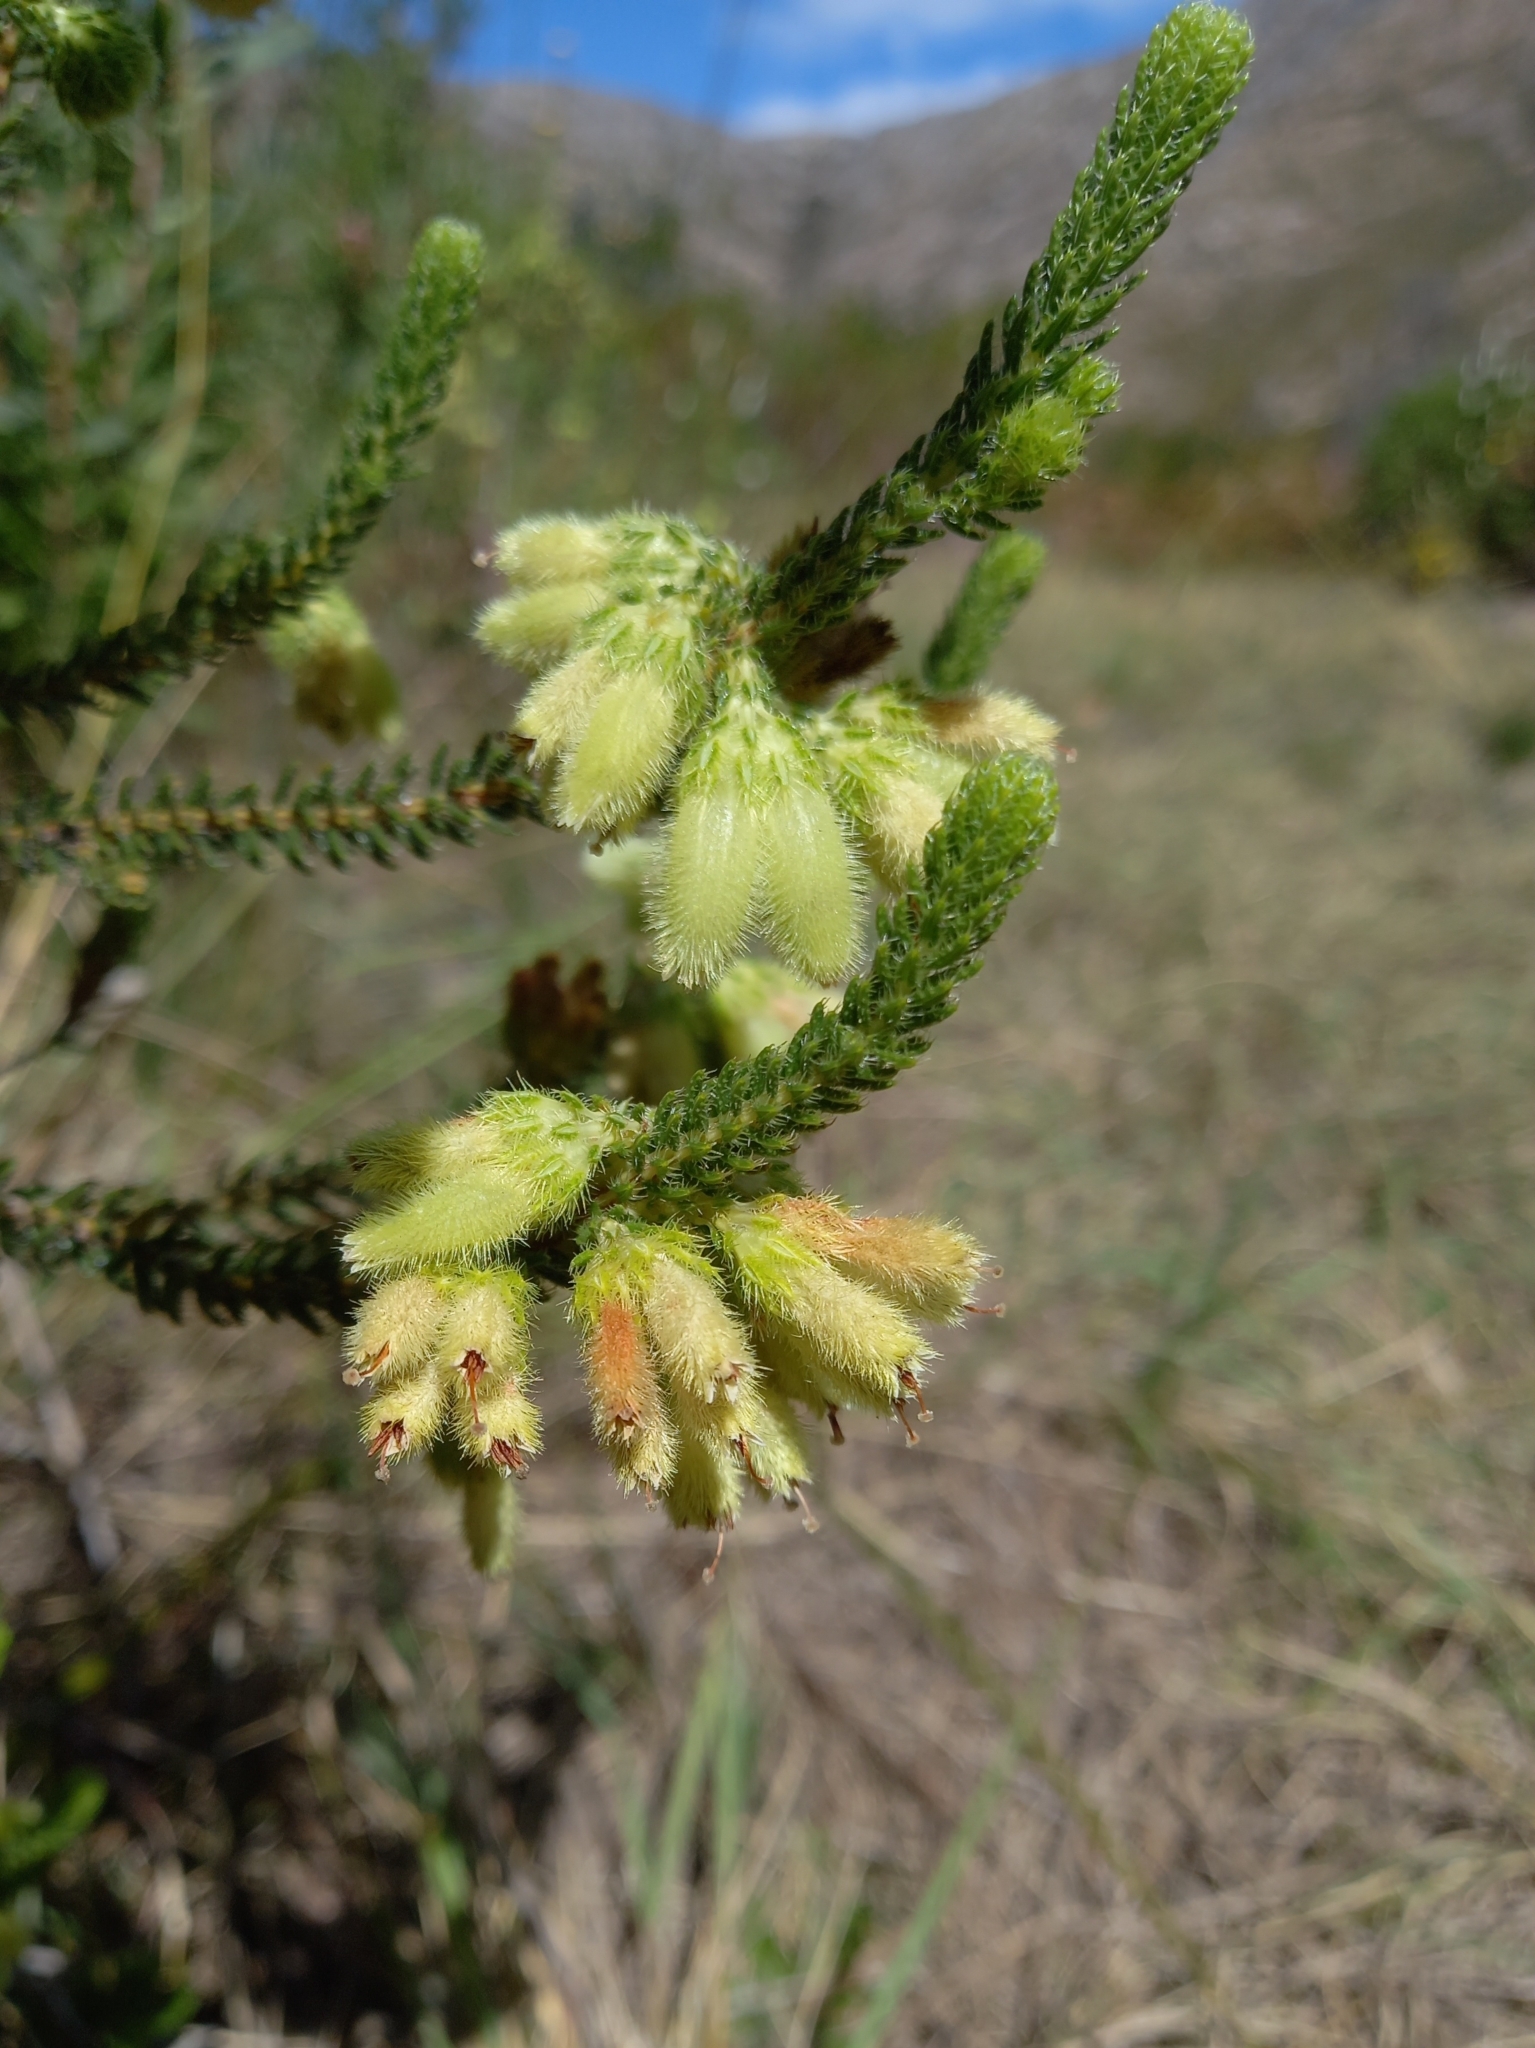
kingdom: Plantae
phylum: Tracheophyta
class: Magnoliopsida
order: Ericales
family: Ericaceae
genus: Erica
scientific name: Erica sparmannii
